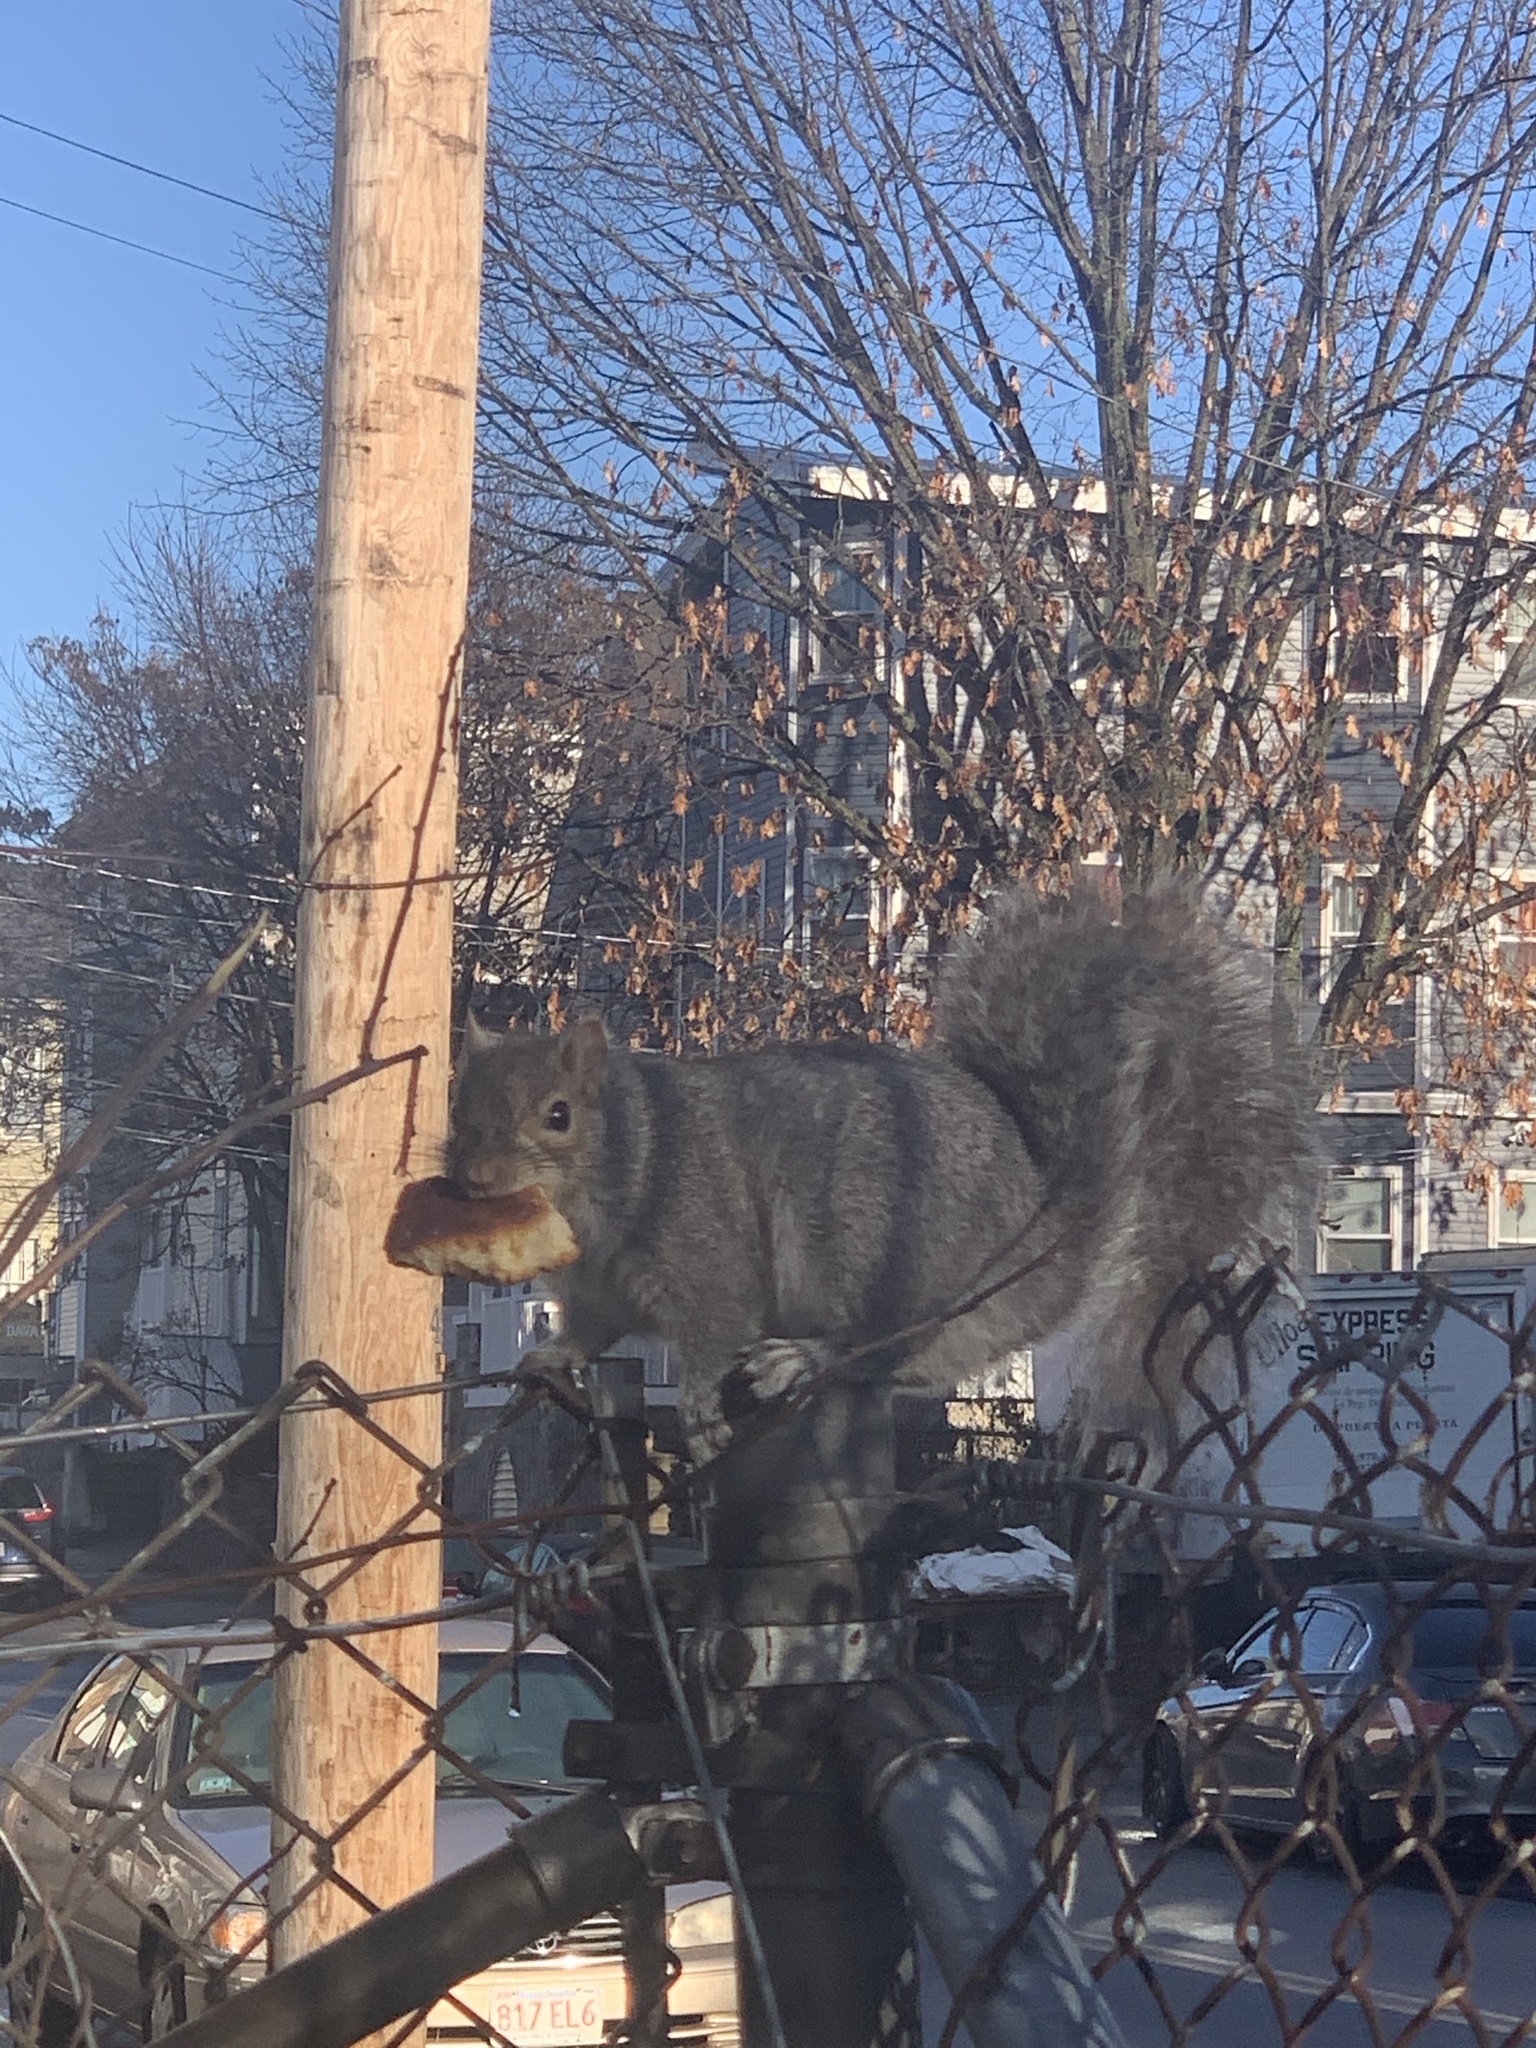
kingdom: Animalia
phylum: Chordata
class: Mammalia
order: Rodentia
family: Sciuridae
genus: Sciurus
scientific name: Sciurus carolinensis
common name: Eastern gray squirrel
